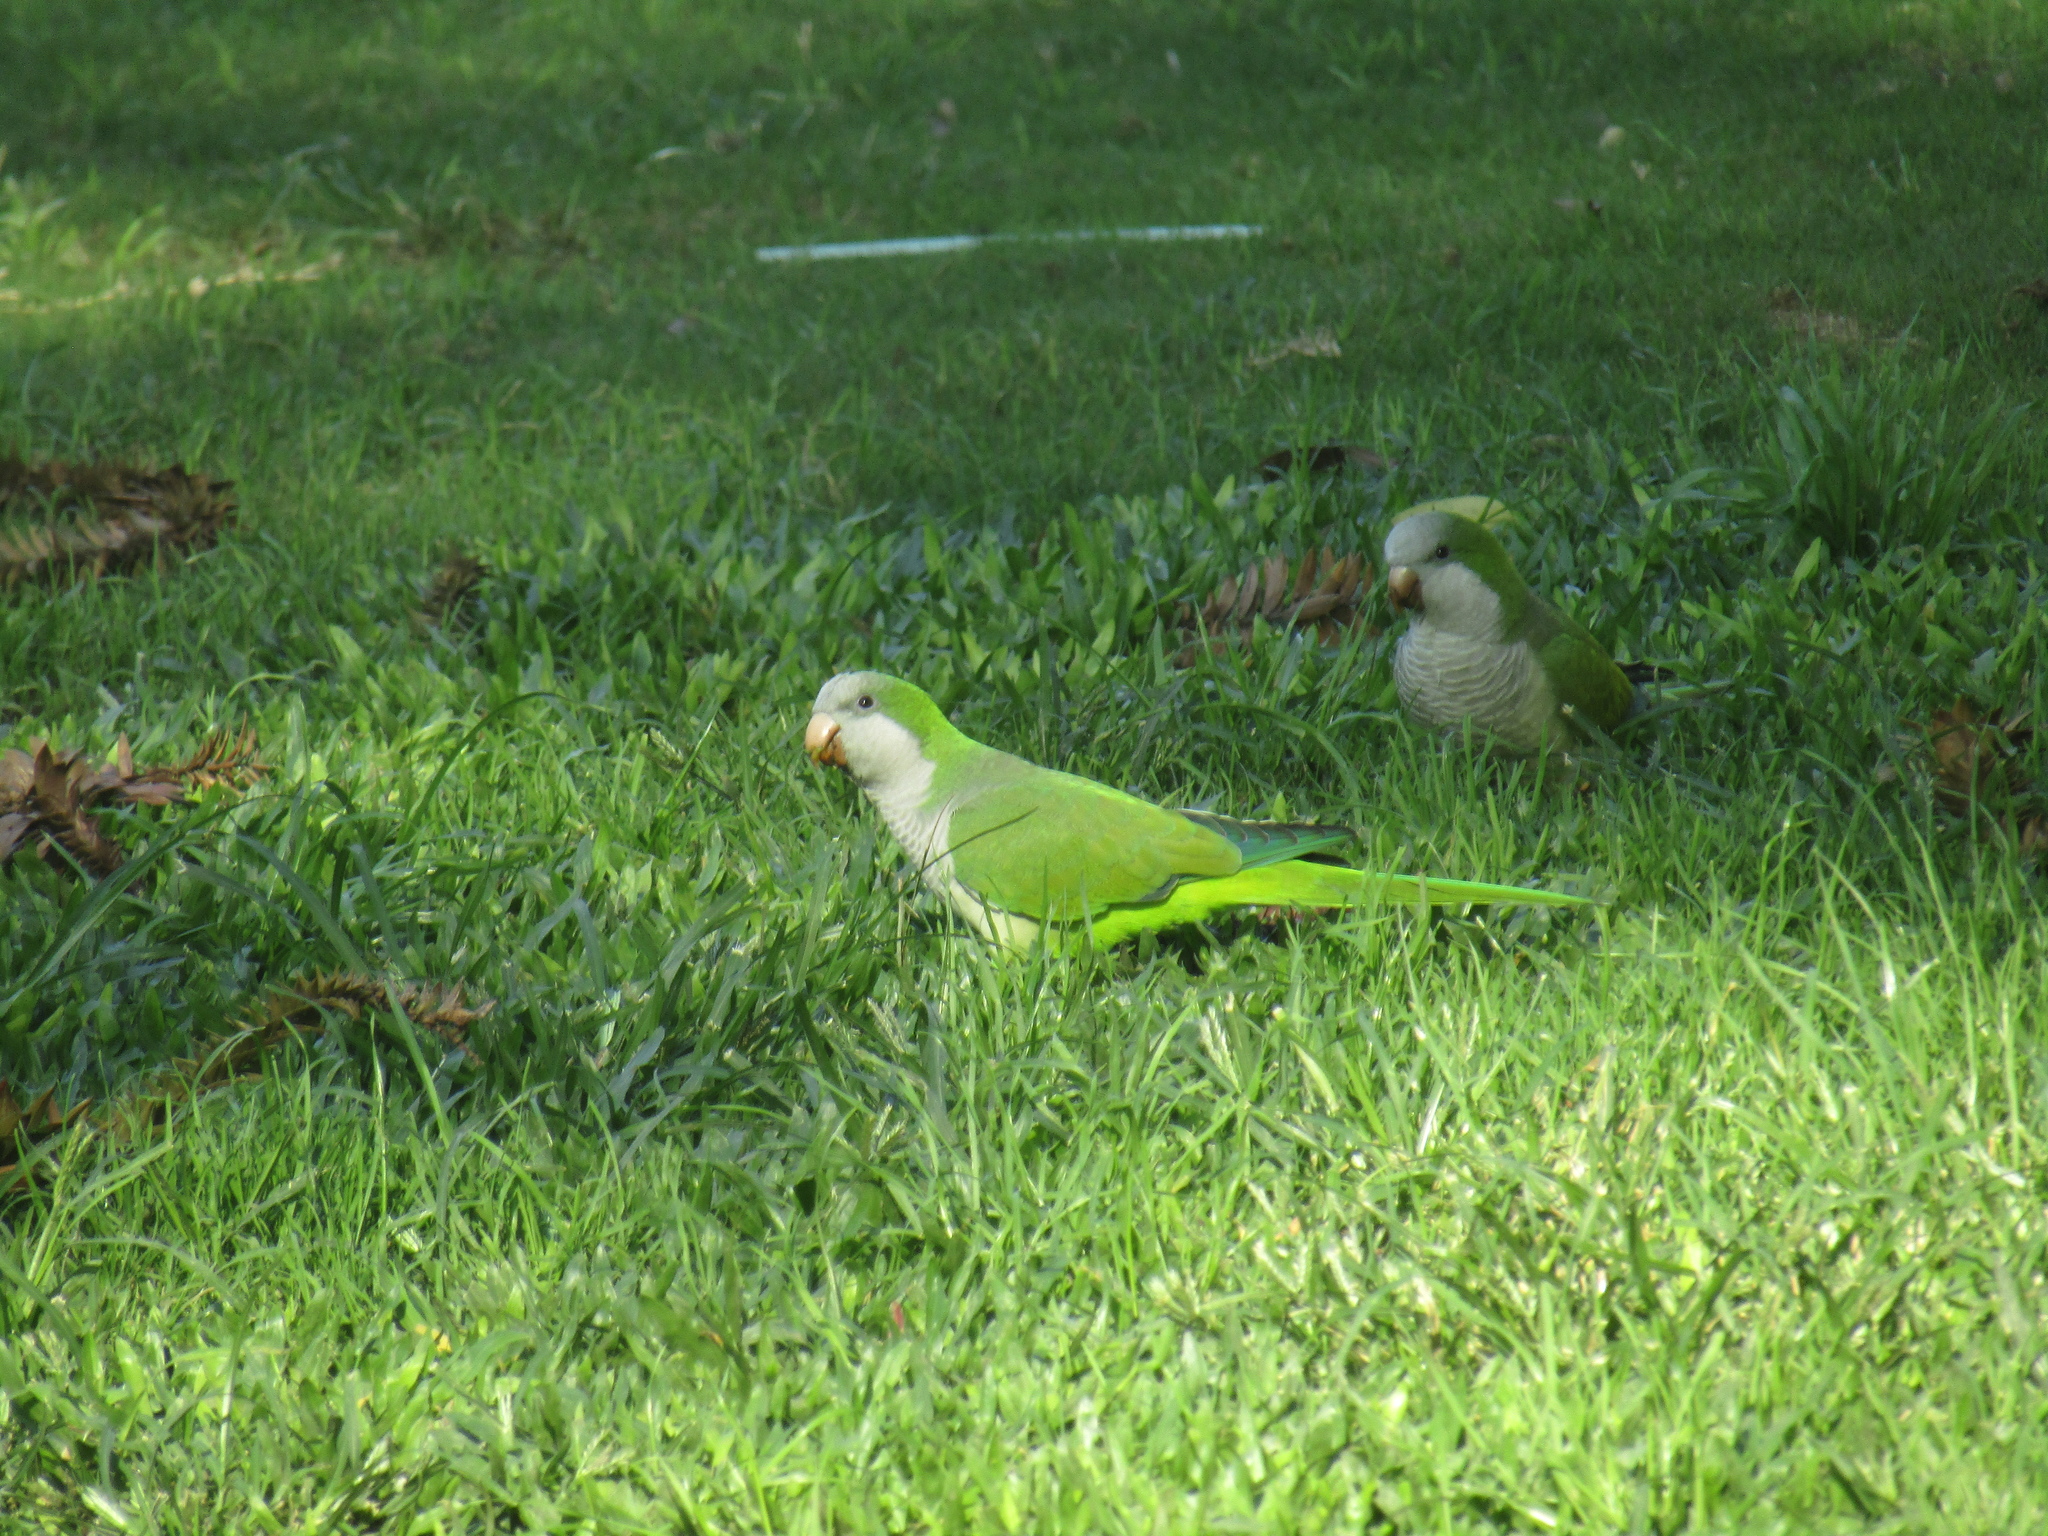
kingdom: Animalia
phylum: Chordata
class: Aves
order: Psittaciformes
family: Psittacidae
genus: Myiopsitta
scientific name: Myiopsitta monachus
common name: Monk parakeet
